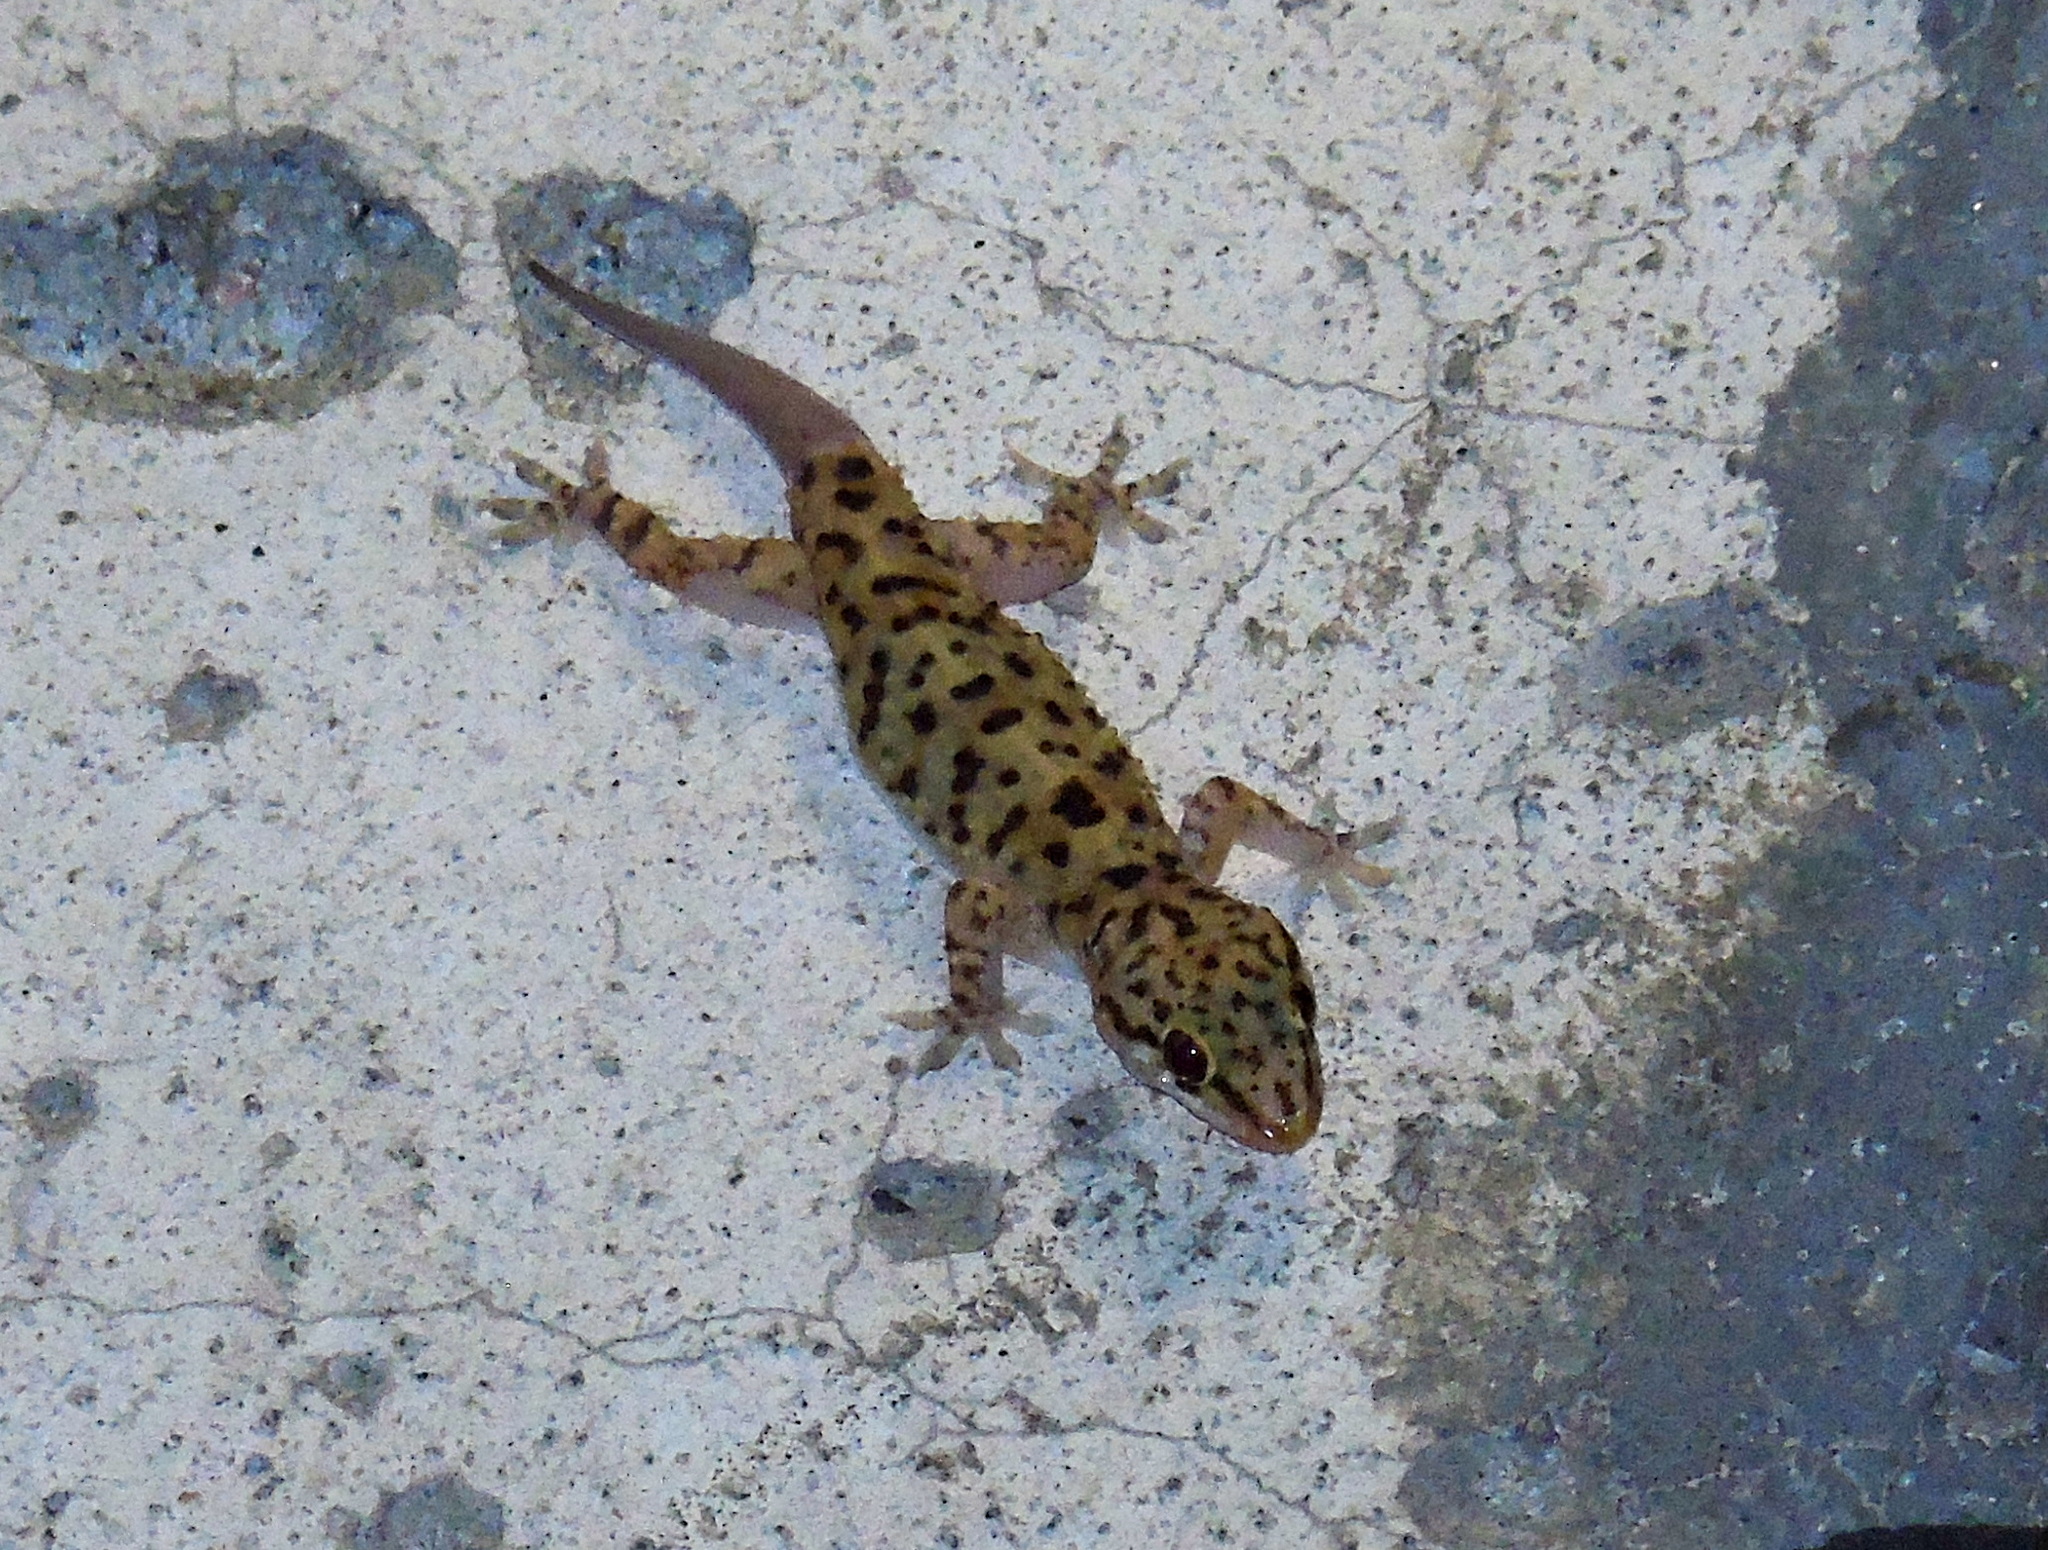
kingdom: Animalia
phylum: Chordata
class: Squamata
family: Gekkonidae
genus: Hemidactylus
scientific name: Hemidactylus turcicus
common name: Turkish gecko
